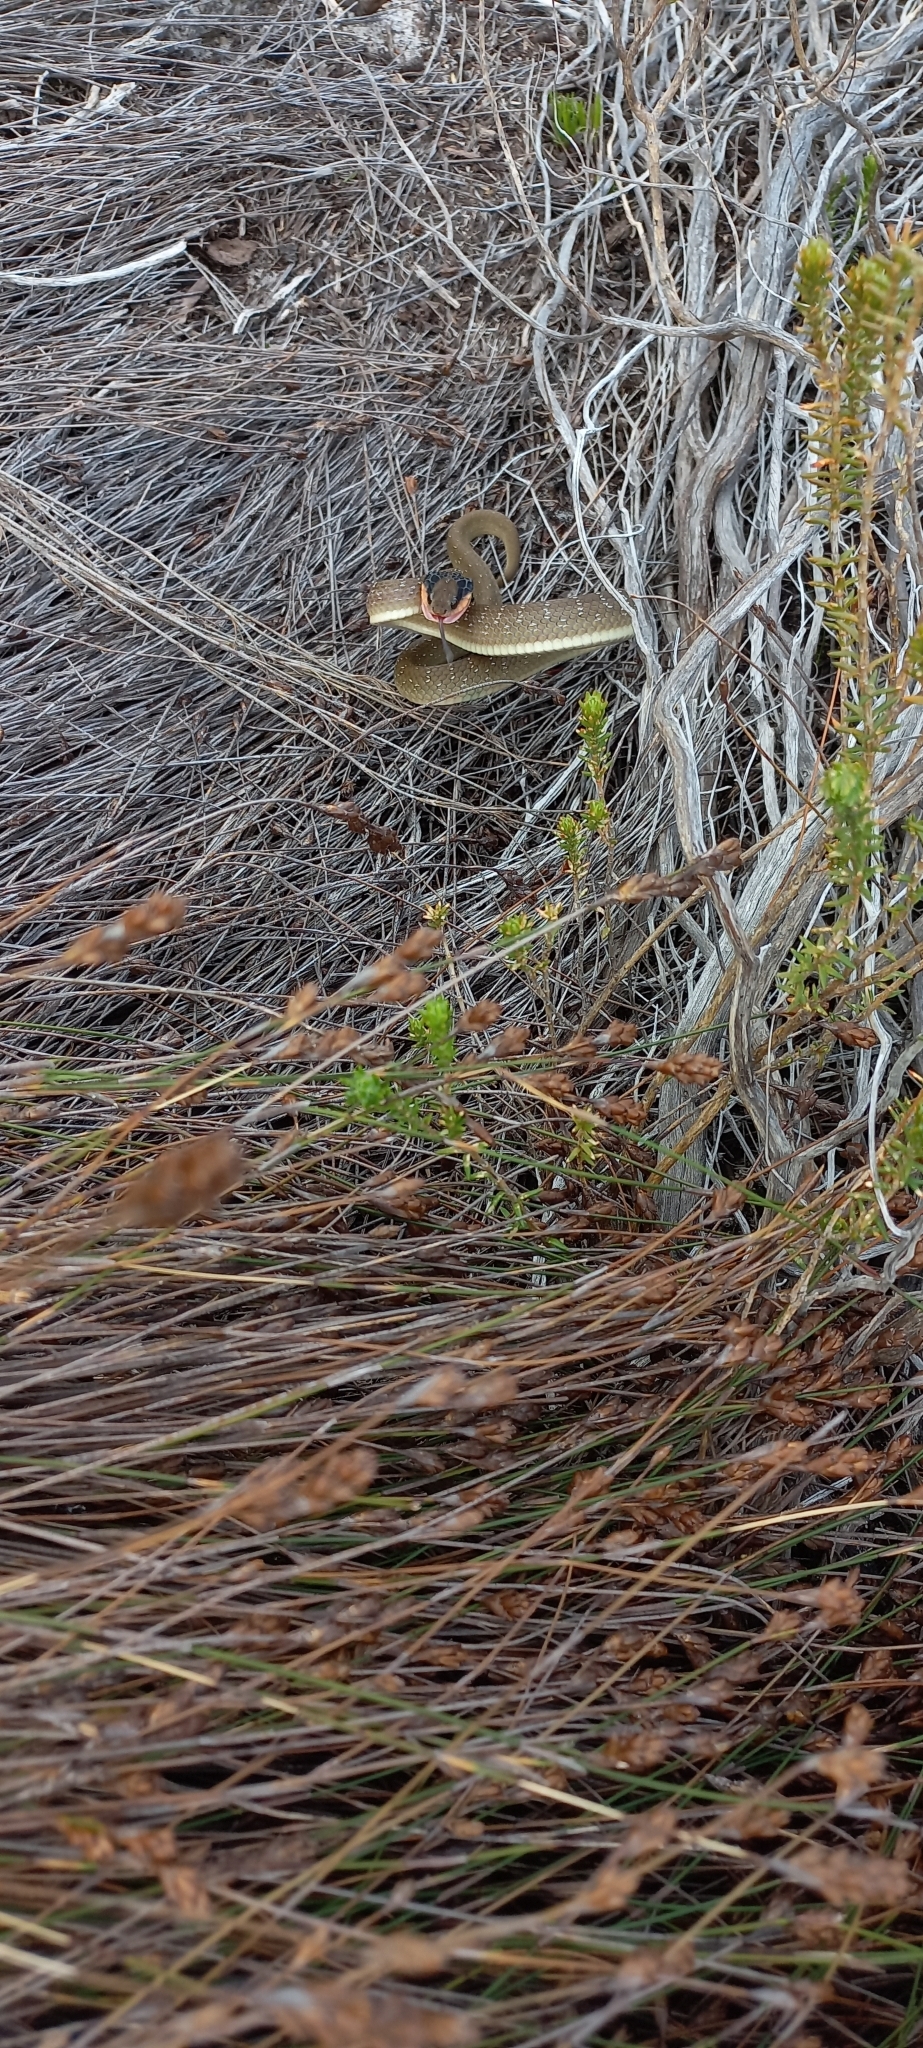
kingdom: Animalia
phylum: Chordata
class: Squamata
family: Colubridae
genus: Crotaphopeltis
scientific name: Crotaphopeltis hotamboeia
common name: Red-lipped snake
